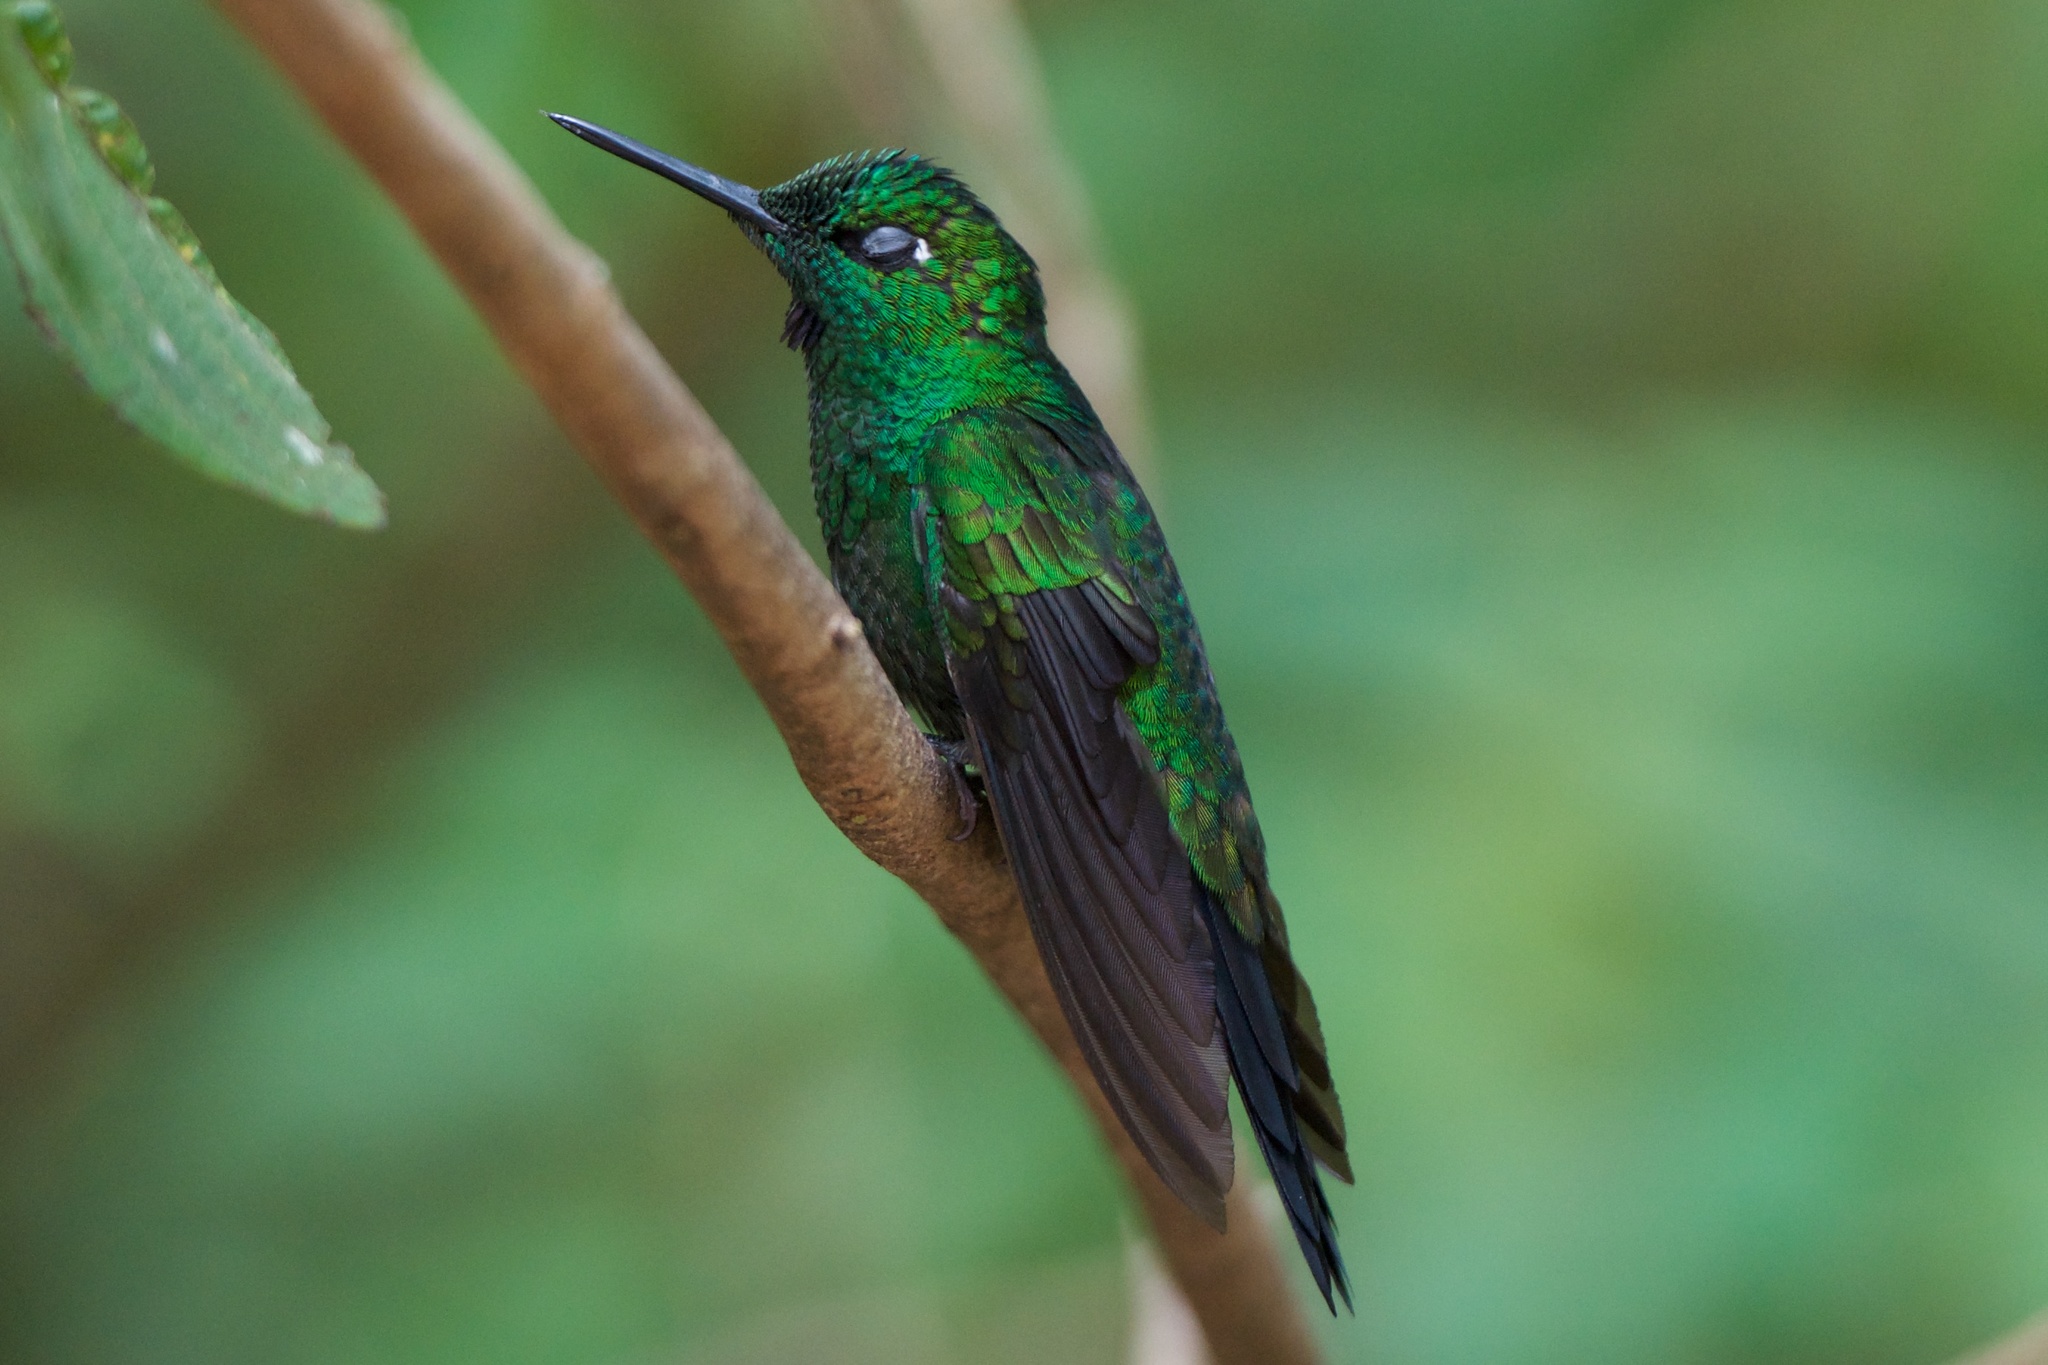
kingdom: Animalia
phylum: Chordata
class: Aves
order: Apodiformes
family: Trochilidae
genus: Heliodoxa
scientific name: Heliodoxa jacula
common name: Green-crowned brilliant
